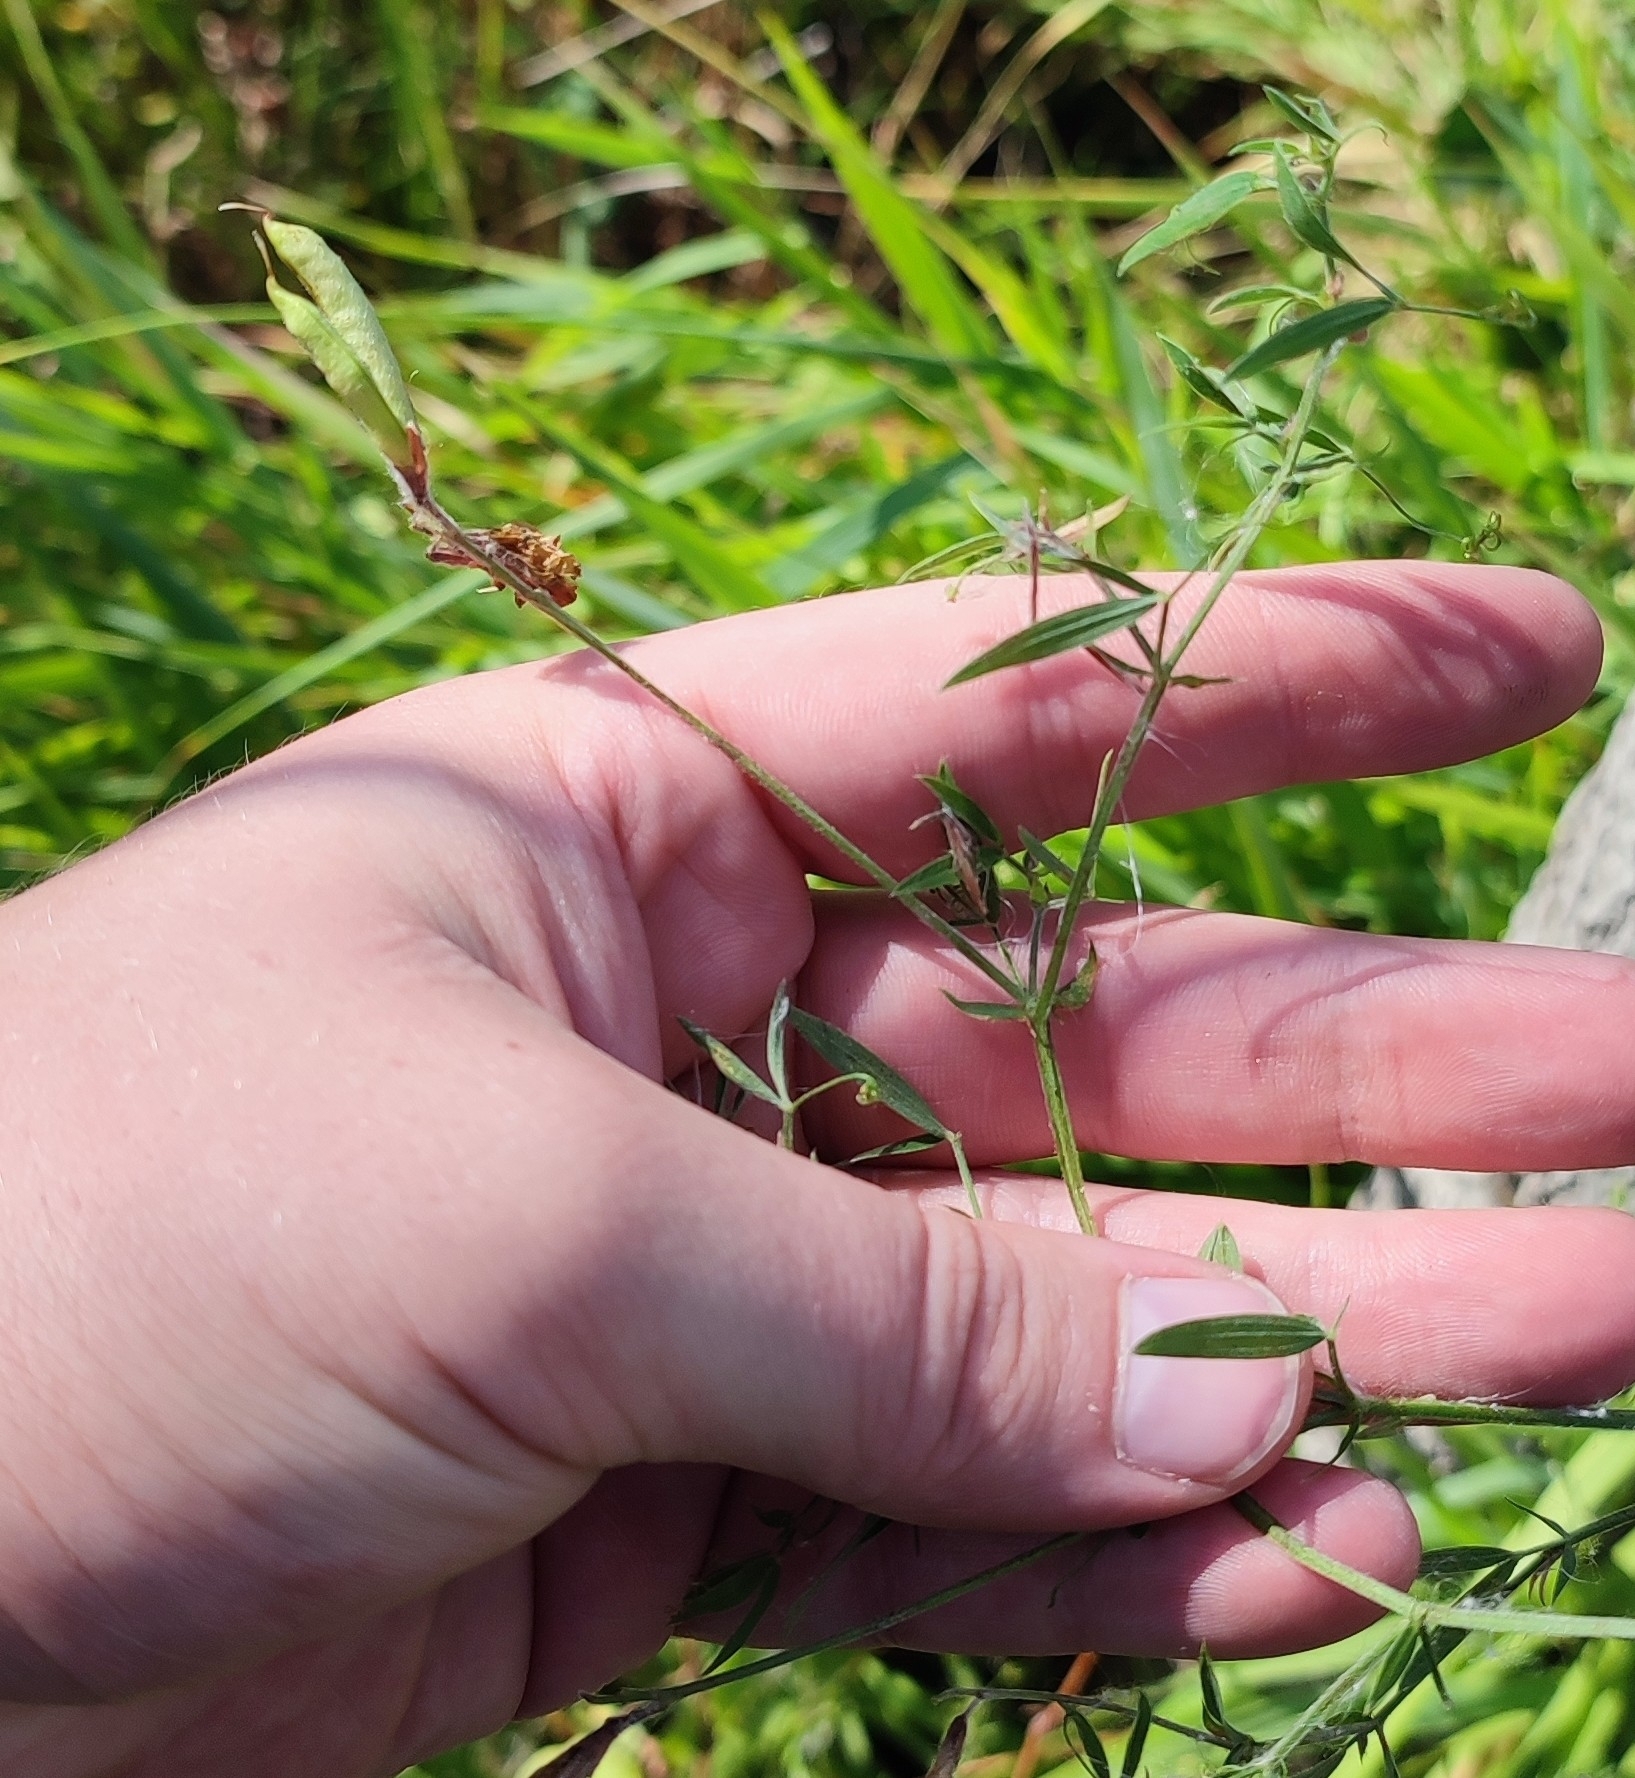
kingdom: Plantae
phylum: Tracheophyta
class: Magnoliopsida
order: Fabales
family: Fabaceae
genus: Lathyrus
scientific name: Lathyrus pratensis
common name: Meadow vetchling
